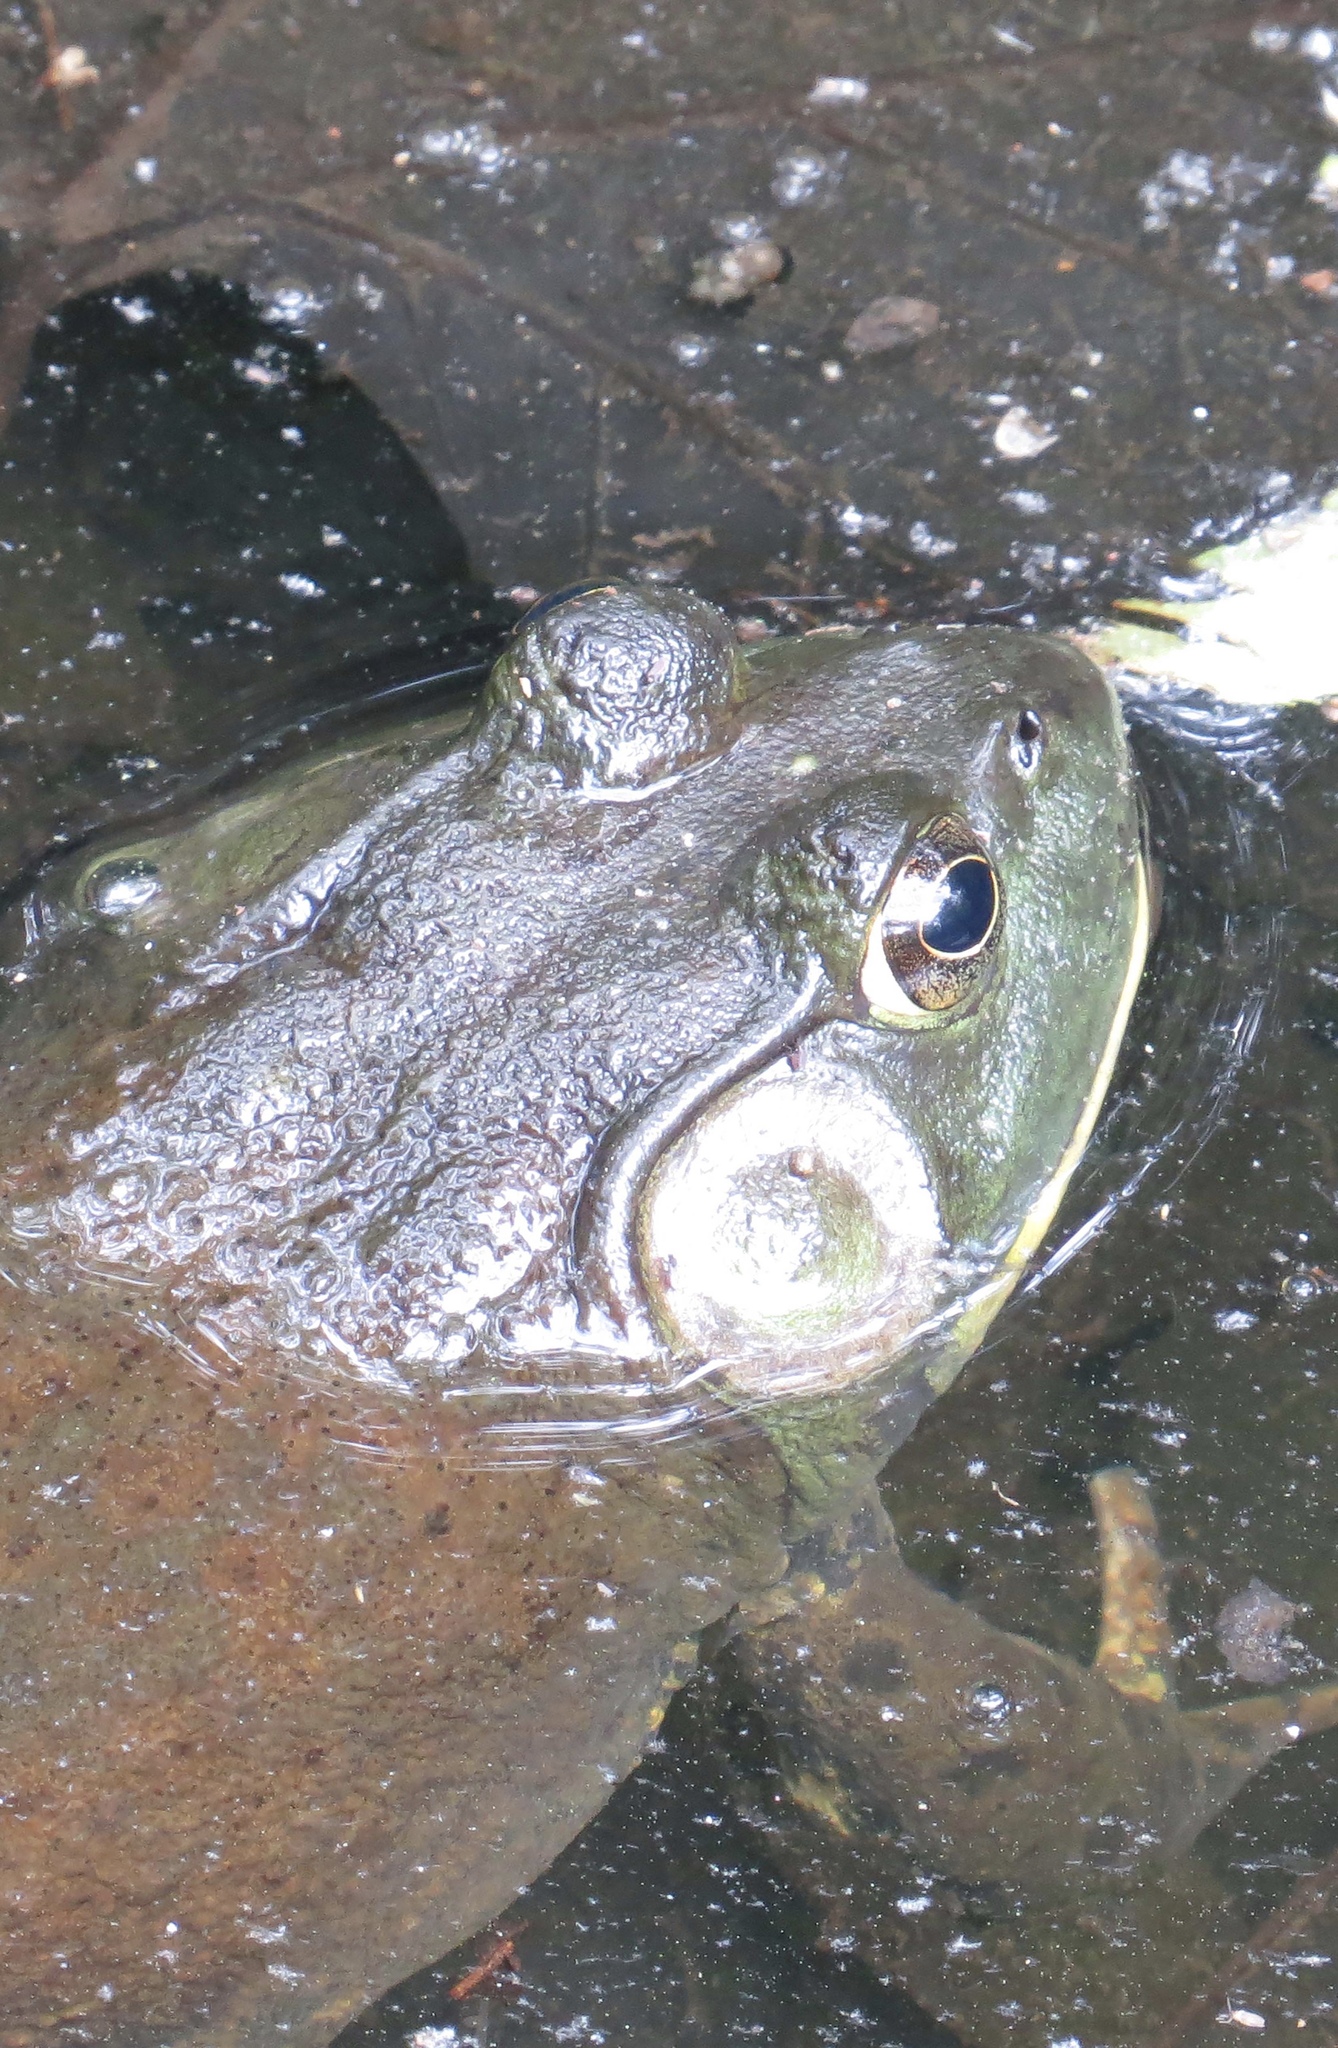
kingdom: Animalia
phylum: Chordata
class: Amphibia
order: Anura
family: Ranidae
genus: Lithobates
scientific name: Lithobates catesbeianus
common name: American bullfrog
